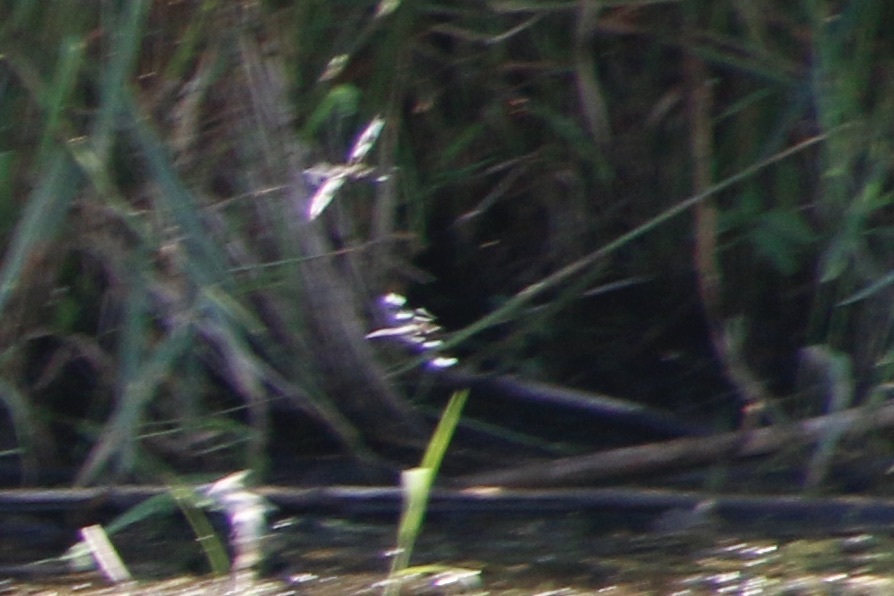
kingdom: Animalia
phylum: Arthropoda
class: Insecta
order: Odonata
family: Libellulidae
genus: Libellula
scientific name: Libellula pulchella
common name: Twelve-spotted skimmer
